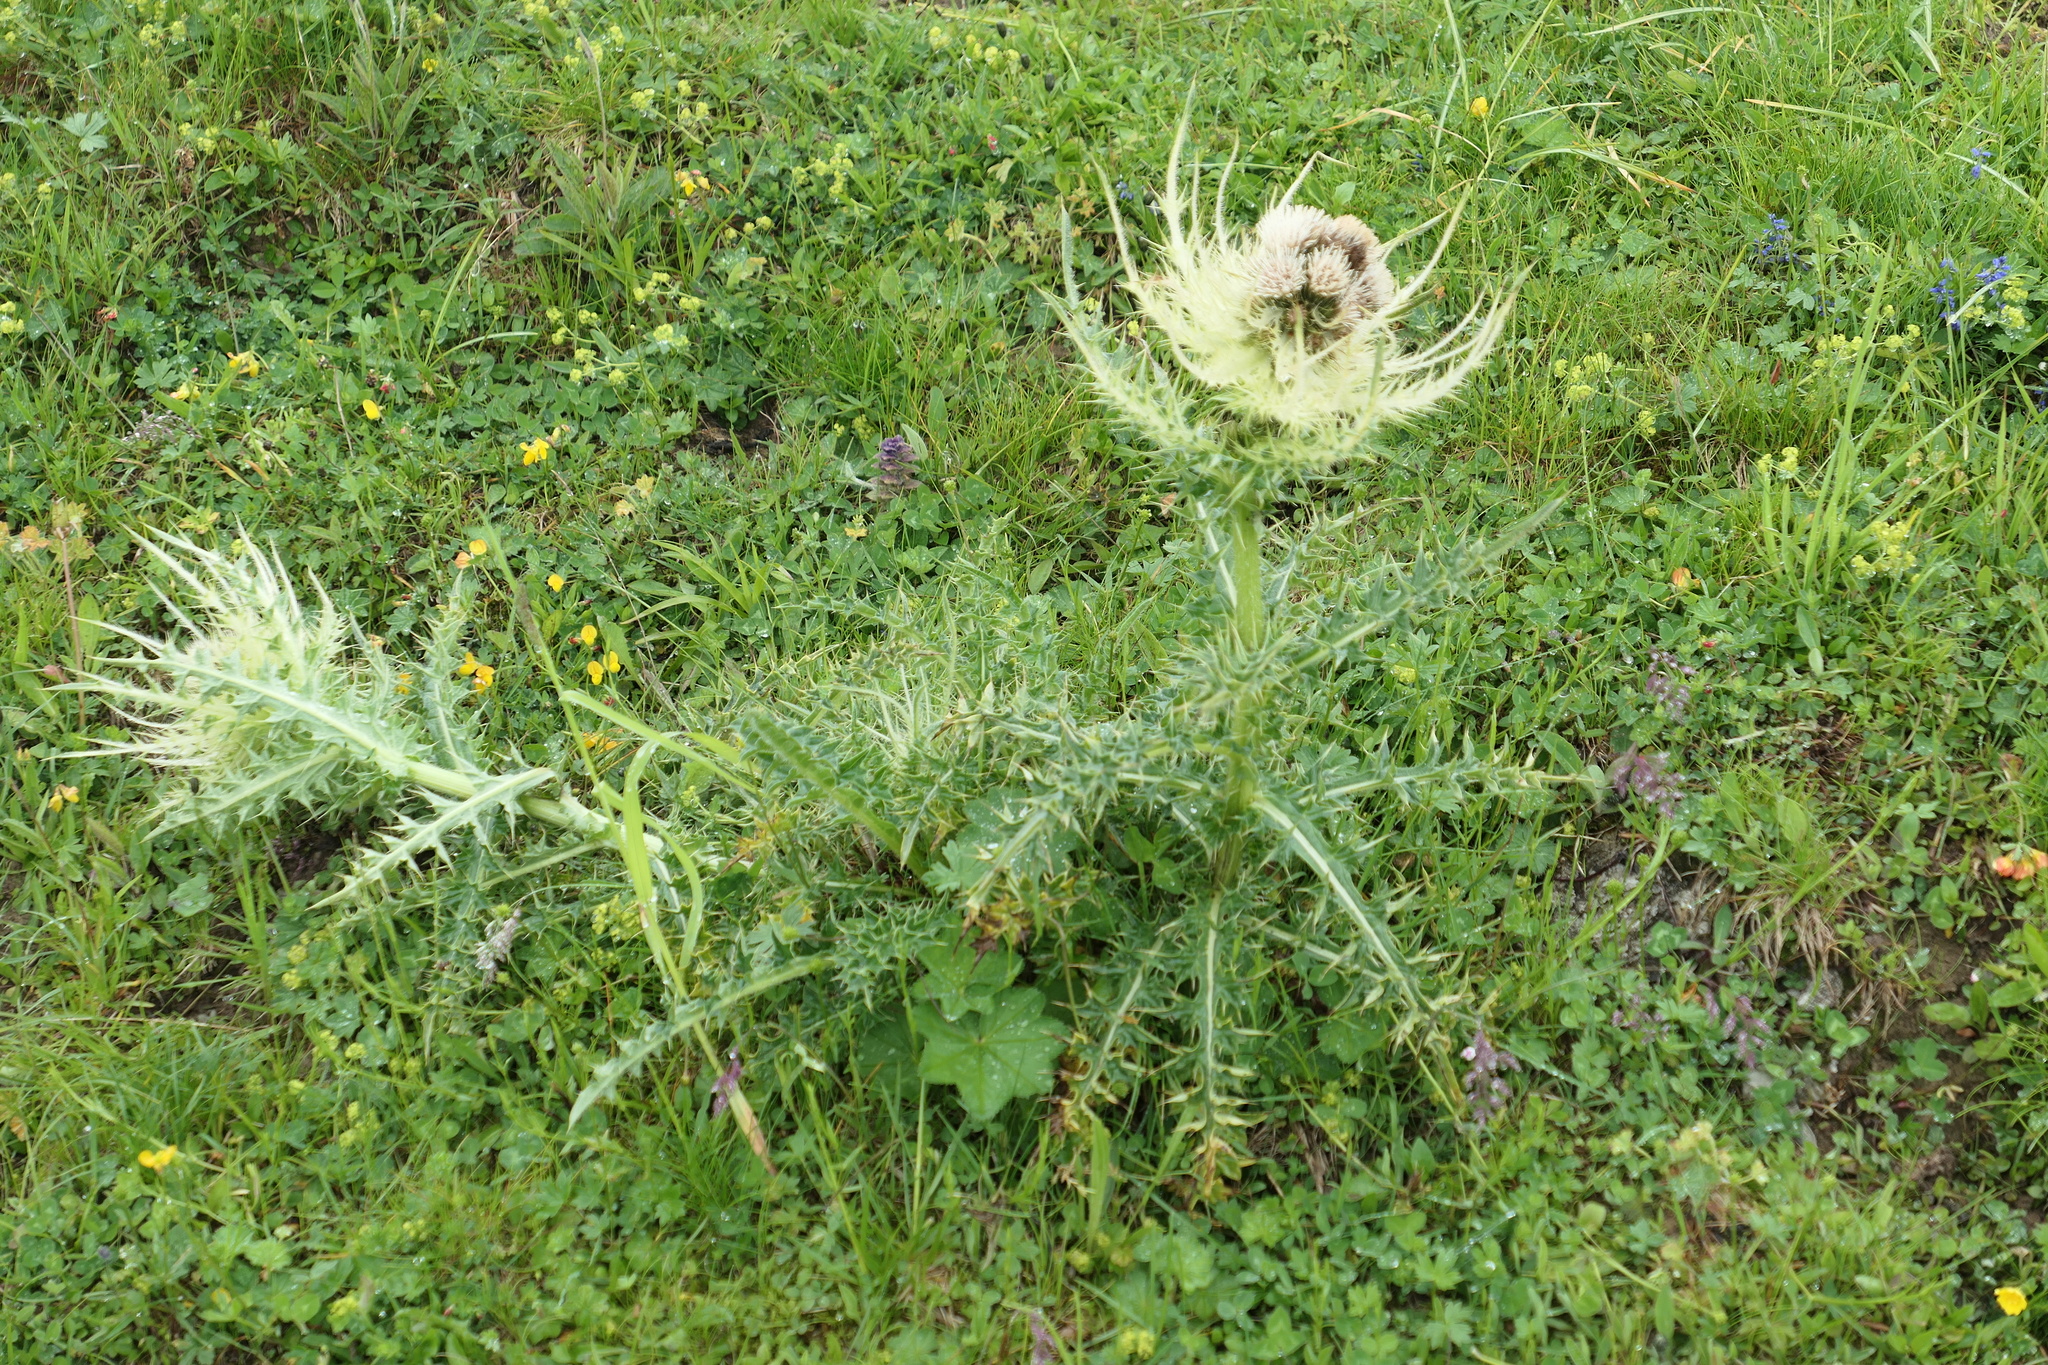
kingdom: Plantae
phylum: Tracheophyta
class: Magnoliopsida
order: Asterales
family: Asteraceae
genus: Cirsium
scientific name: Cirsium spinosissimum
